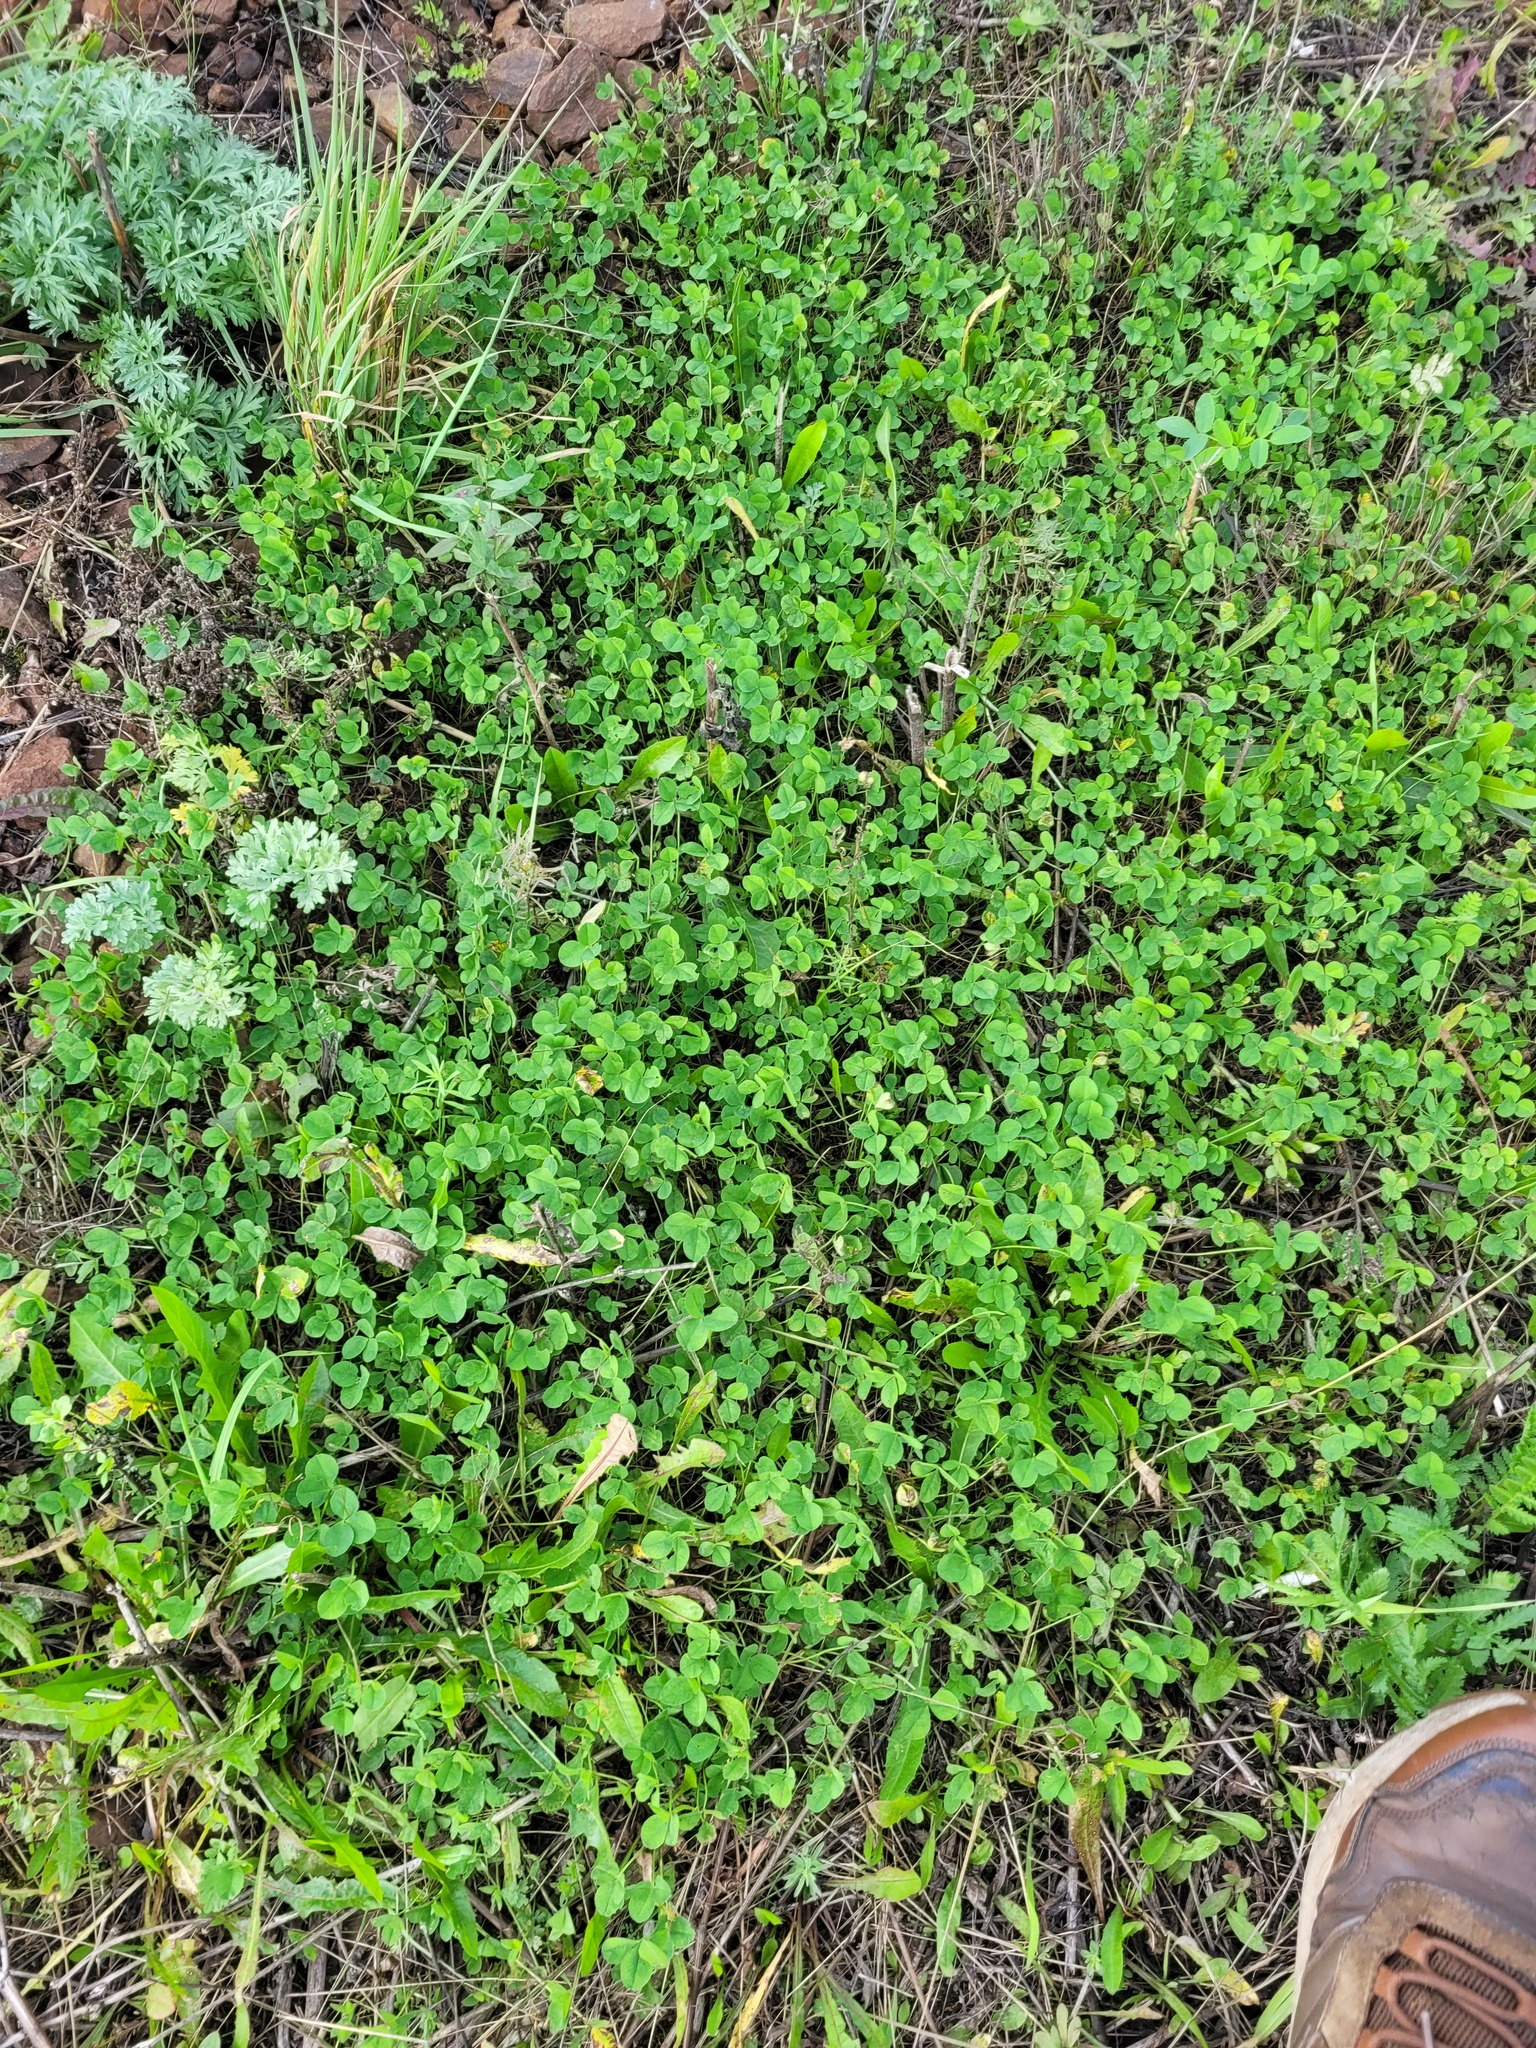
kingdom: Plantae
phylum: Tracheophyta
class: Magnoliopsida
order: Fabales
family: Fabaceae
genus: Trifolium
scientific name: Trifolium repens
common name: White clover
